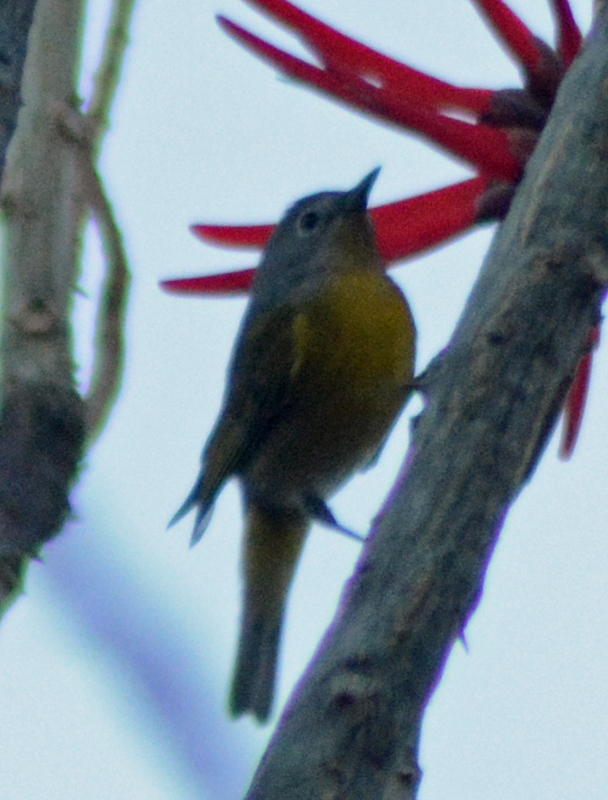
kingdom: Animalia
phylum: Chordata
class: Aves
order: Passeriformes
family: Parulidae
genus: Leiothlypis
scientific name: Leiothlypis ruficapilla
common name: Nashville warbler
